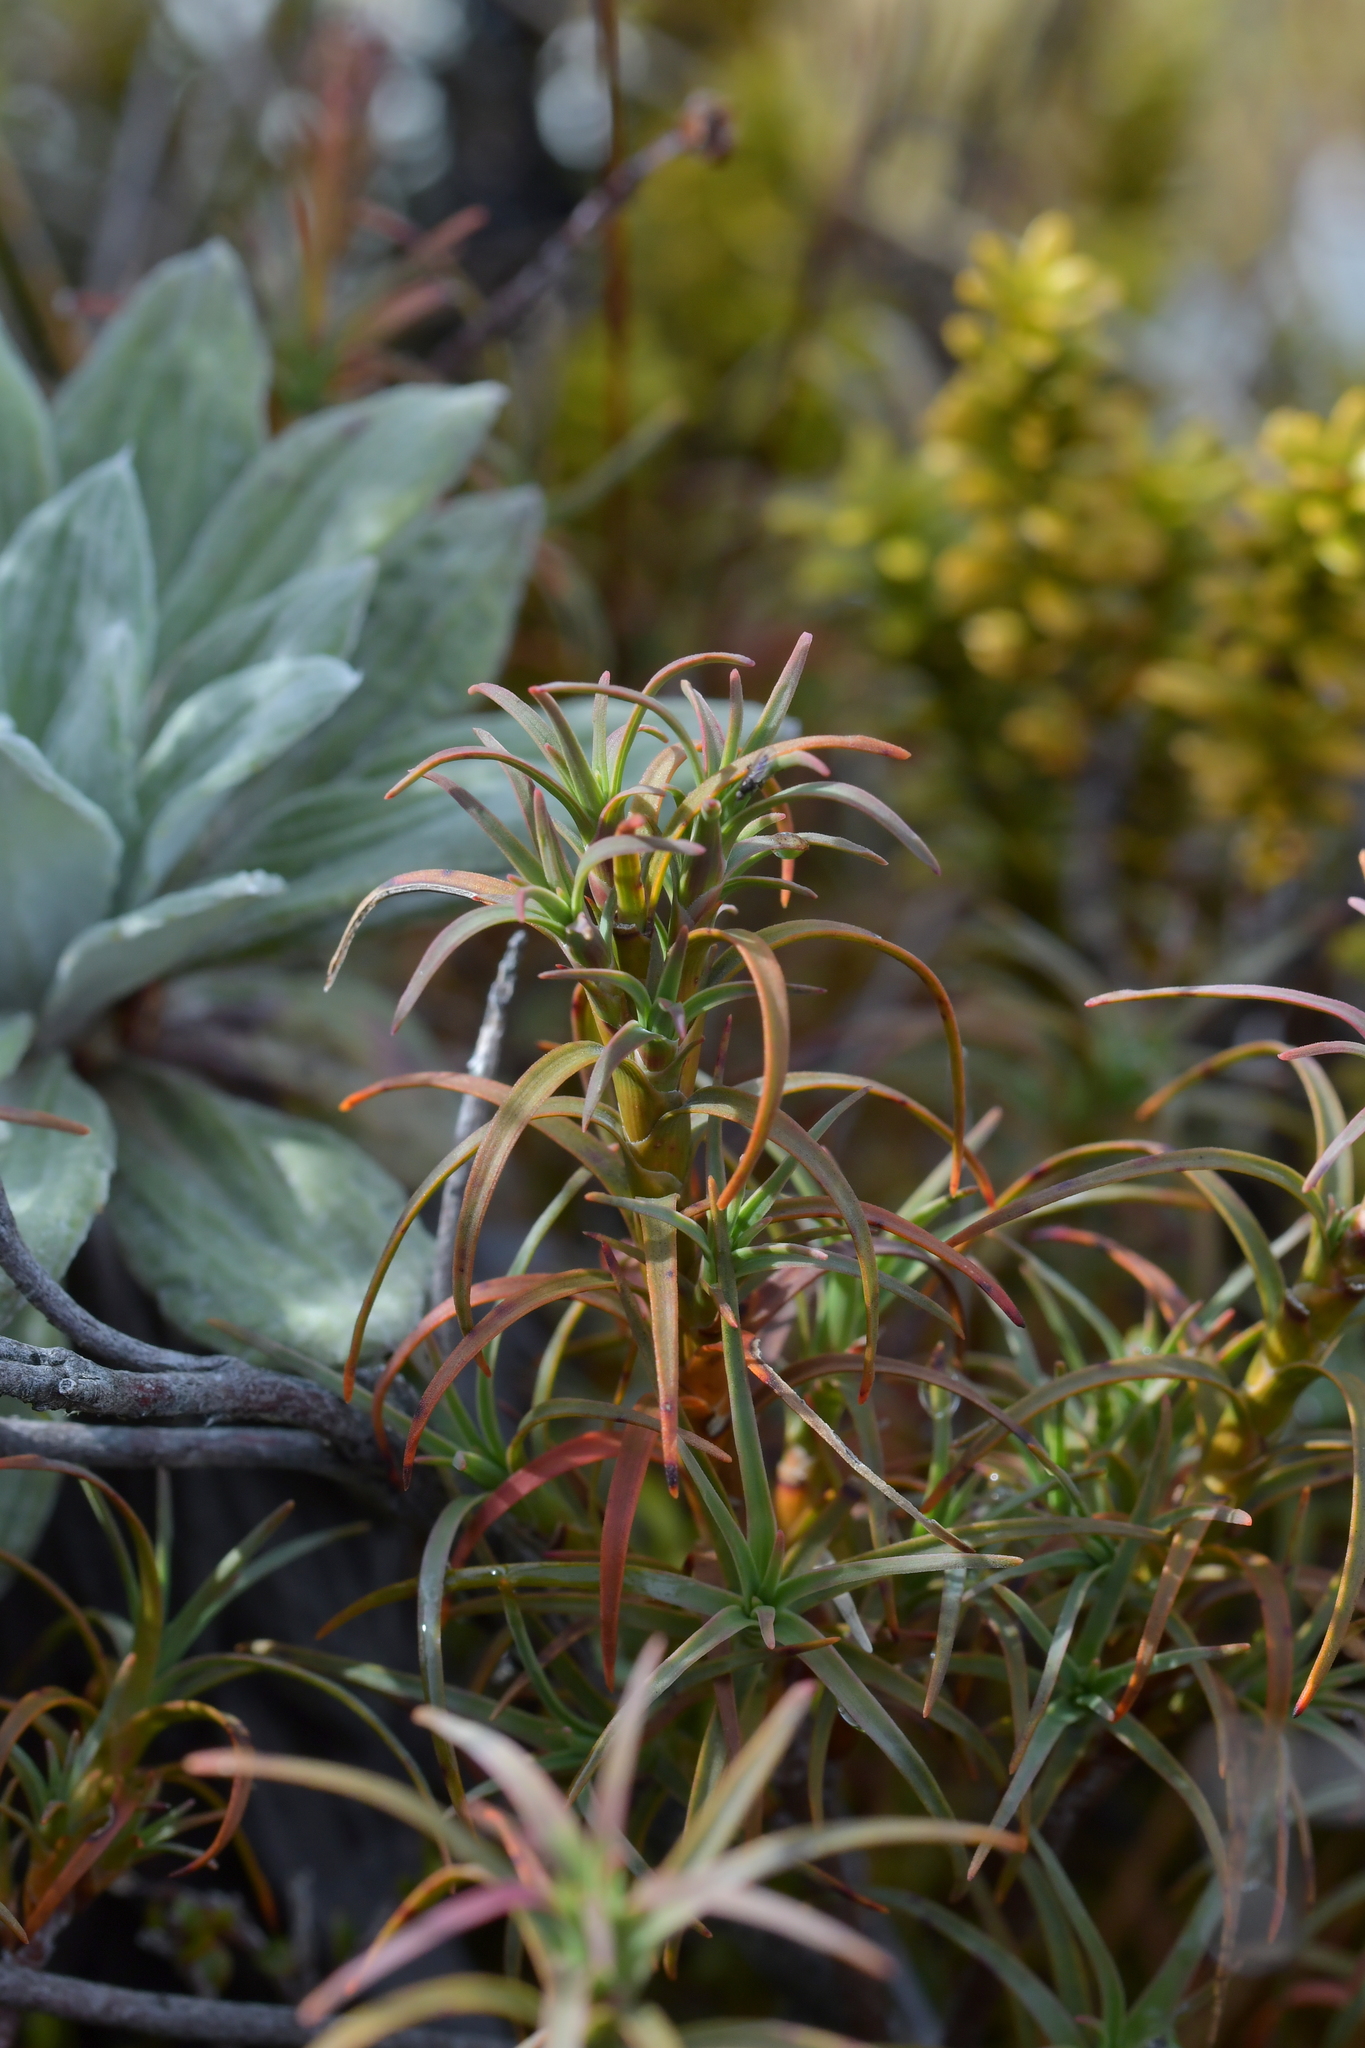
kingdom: Plantae
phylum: Tracheophyta
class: Magnoliopsida
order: Ericales
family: Ericaceae
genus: Dracophyllum
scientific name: Dracophyllum recurvum
